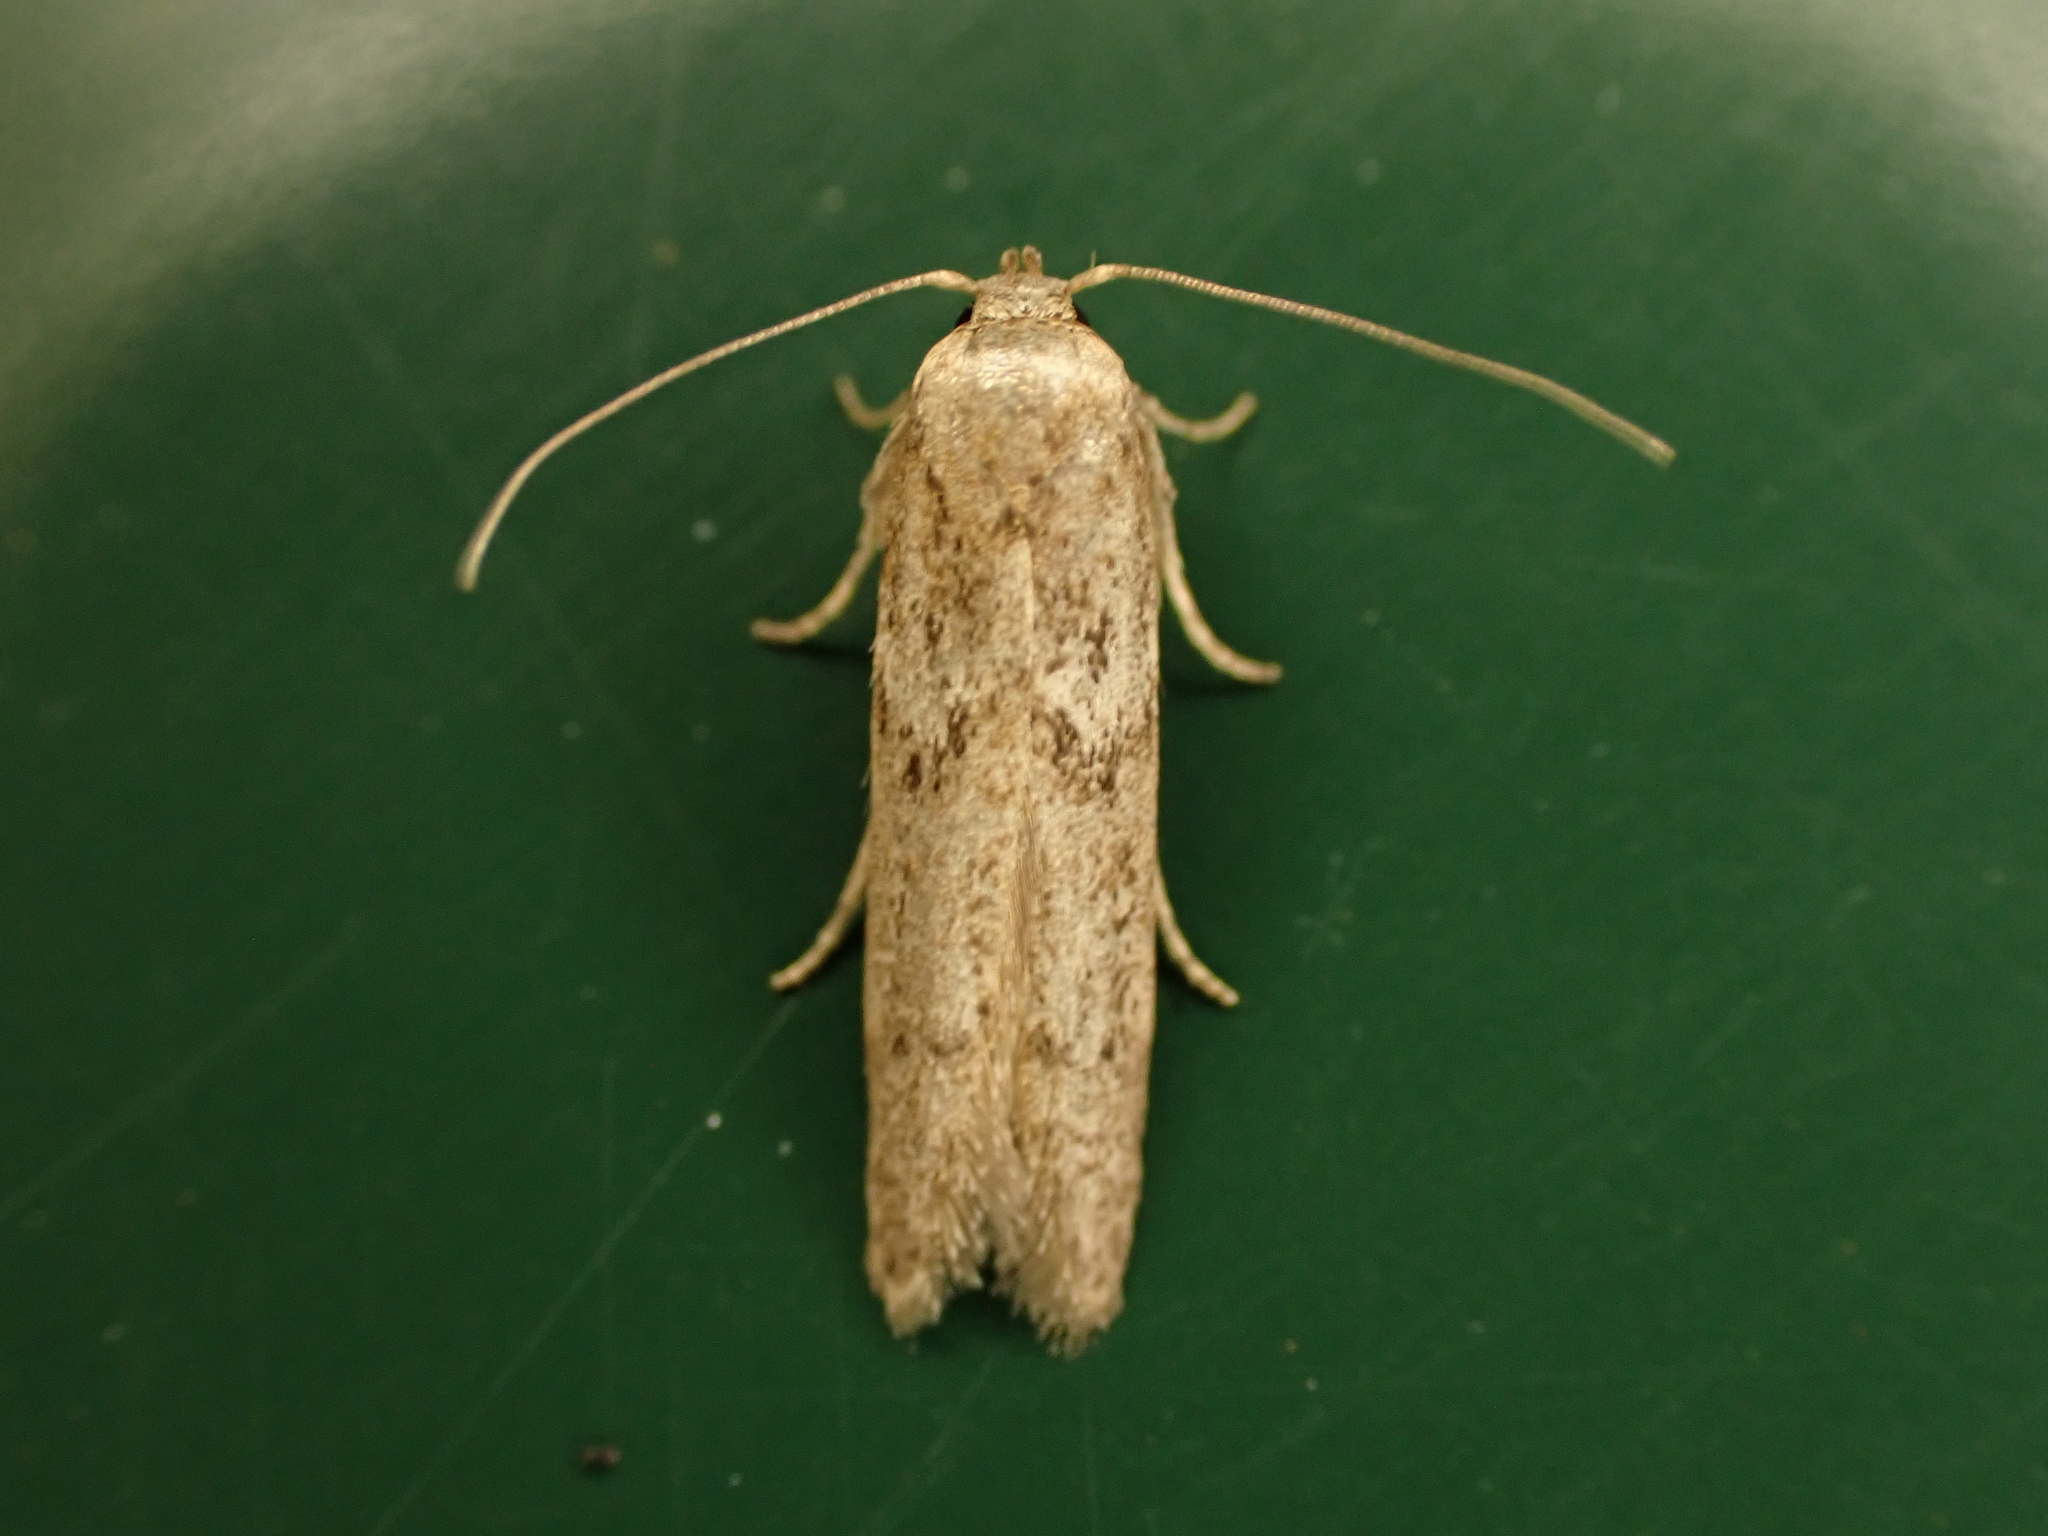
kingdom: Animalia
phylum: Arthropoda
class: Insecta
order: Lepidoptera
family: Blastobasidae
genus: Blastobasis
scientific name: Blastobasis tarda
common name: Blastobasid moth
